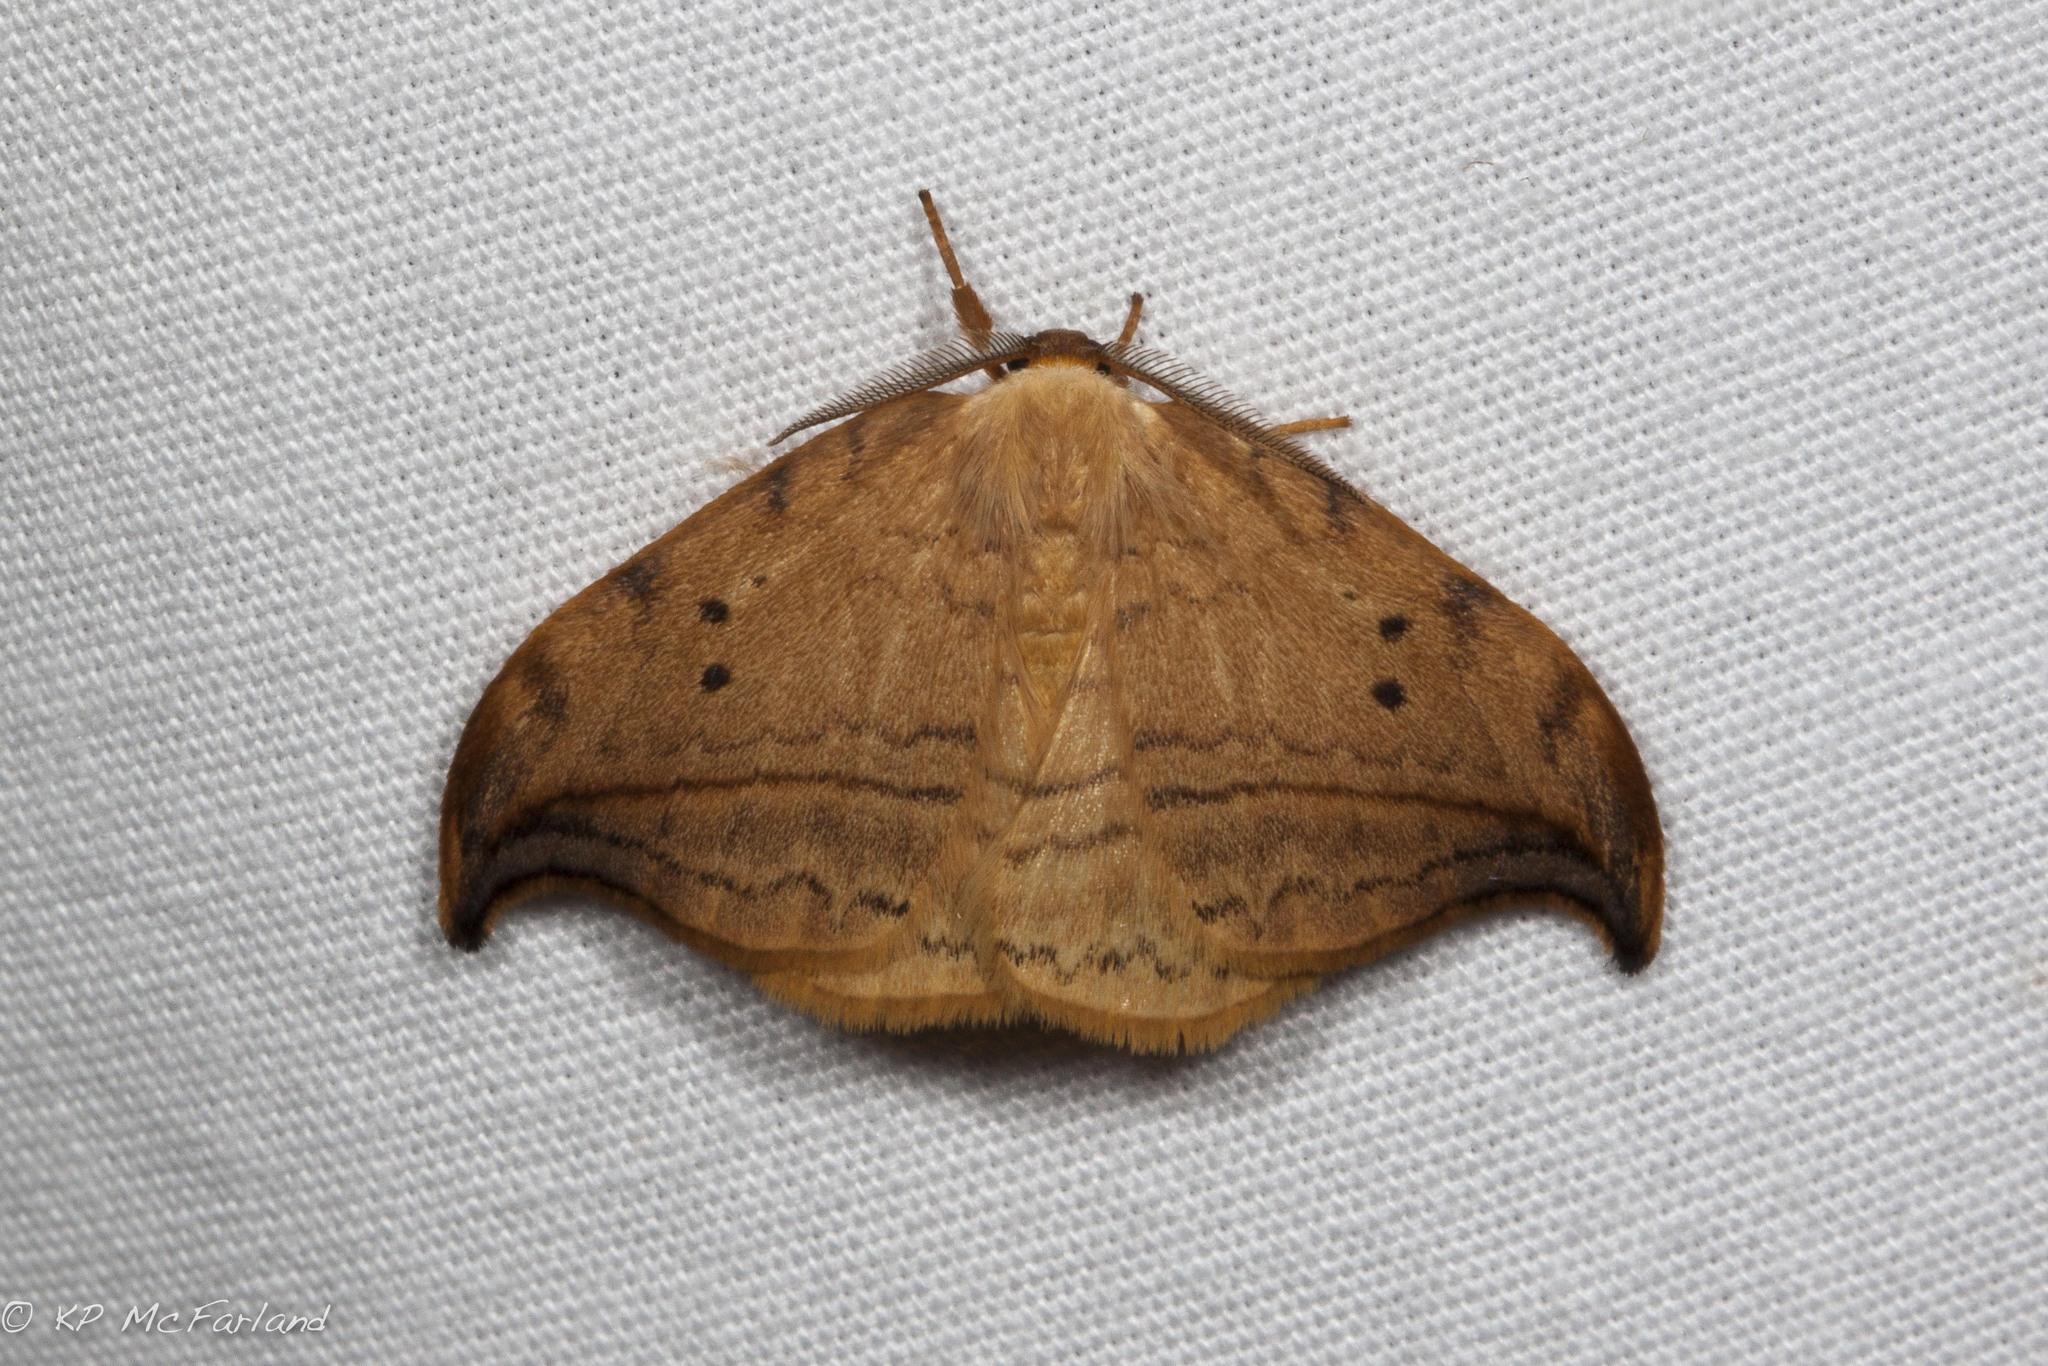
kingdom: Animalia
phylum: Arthropoda
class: Insecta
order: Lepidoptera
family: Drepanidae
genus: Drepana
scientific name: Drepana arcuata
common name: Arched hooktip moth
